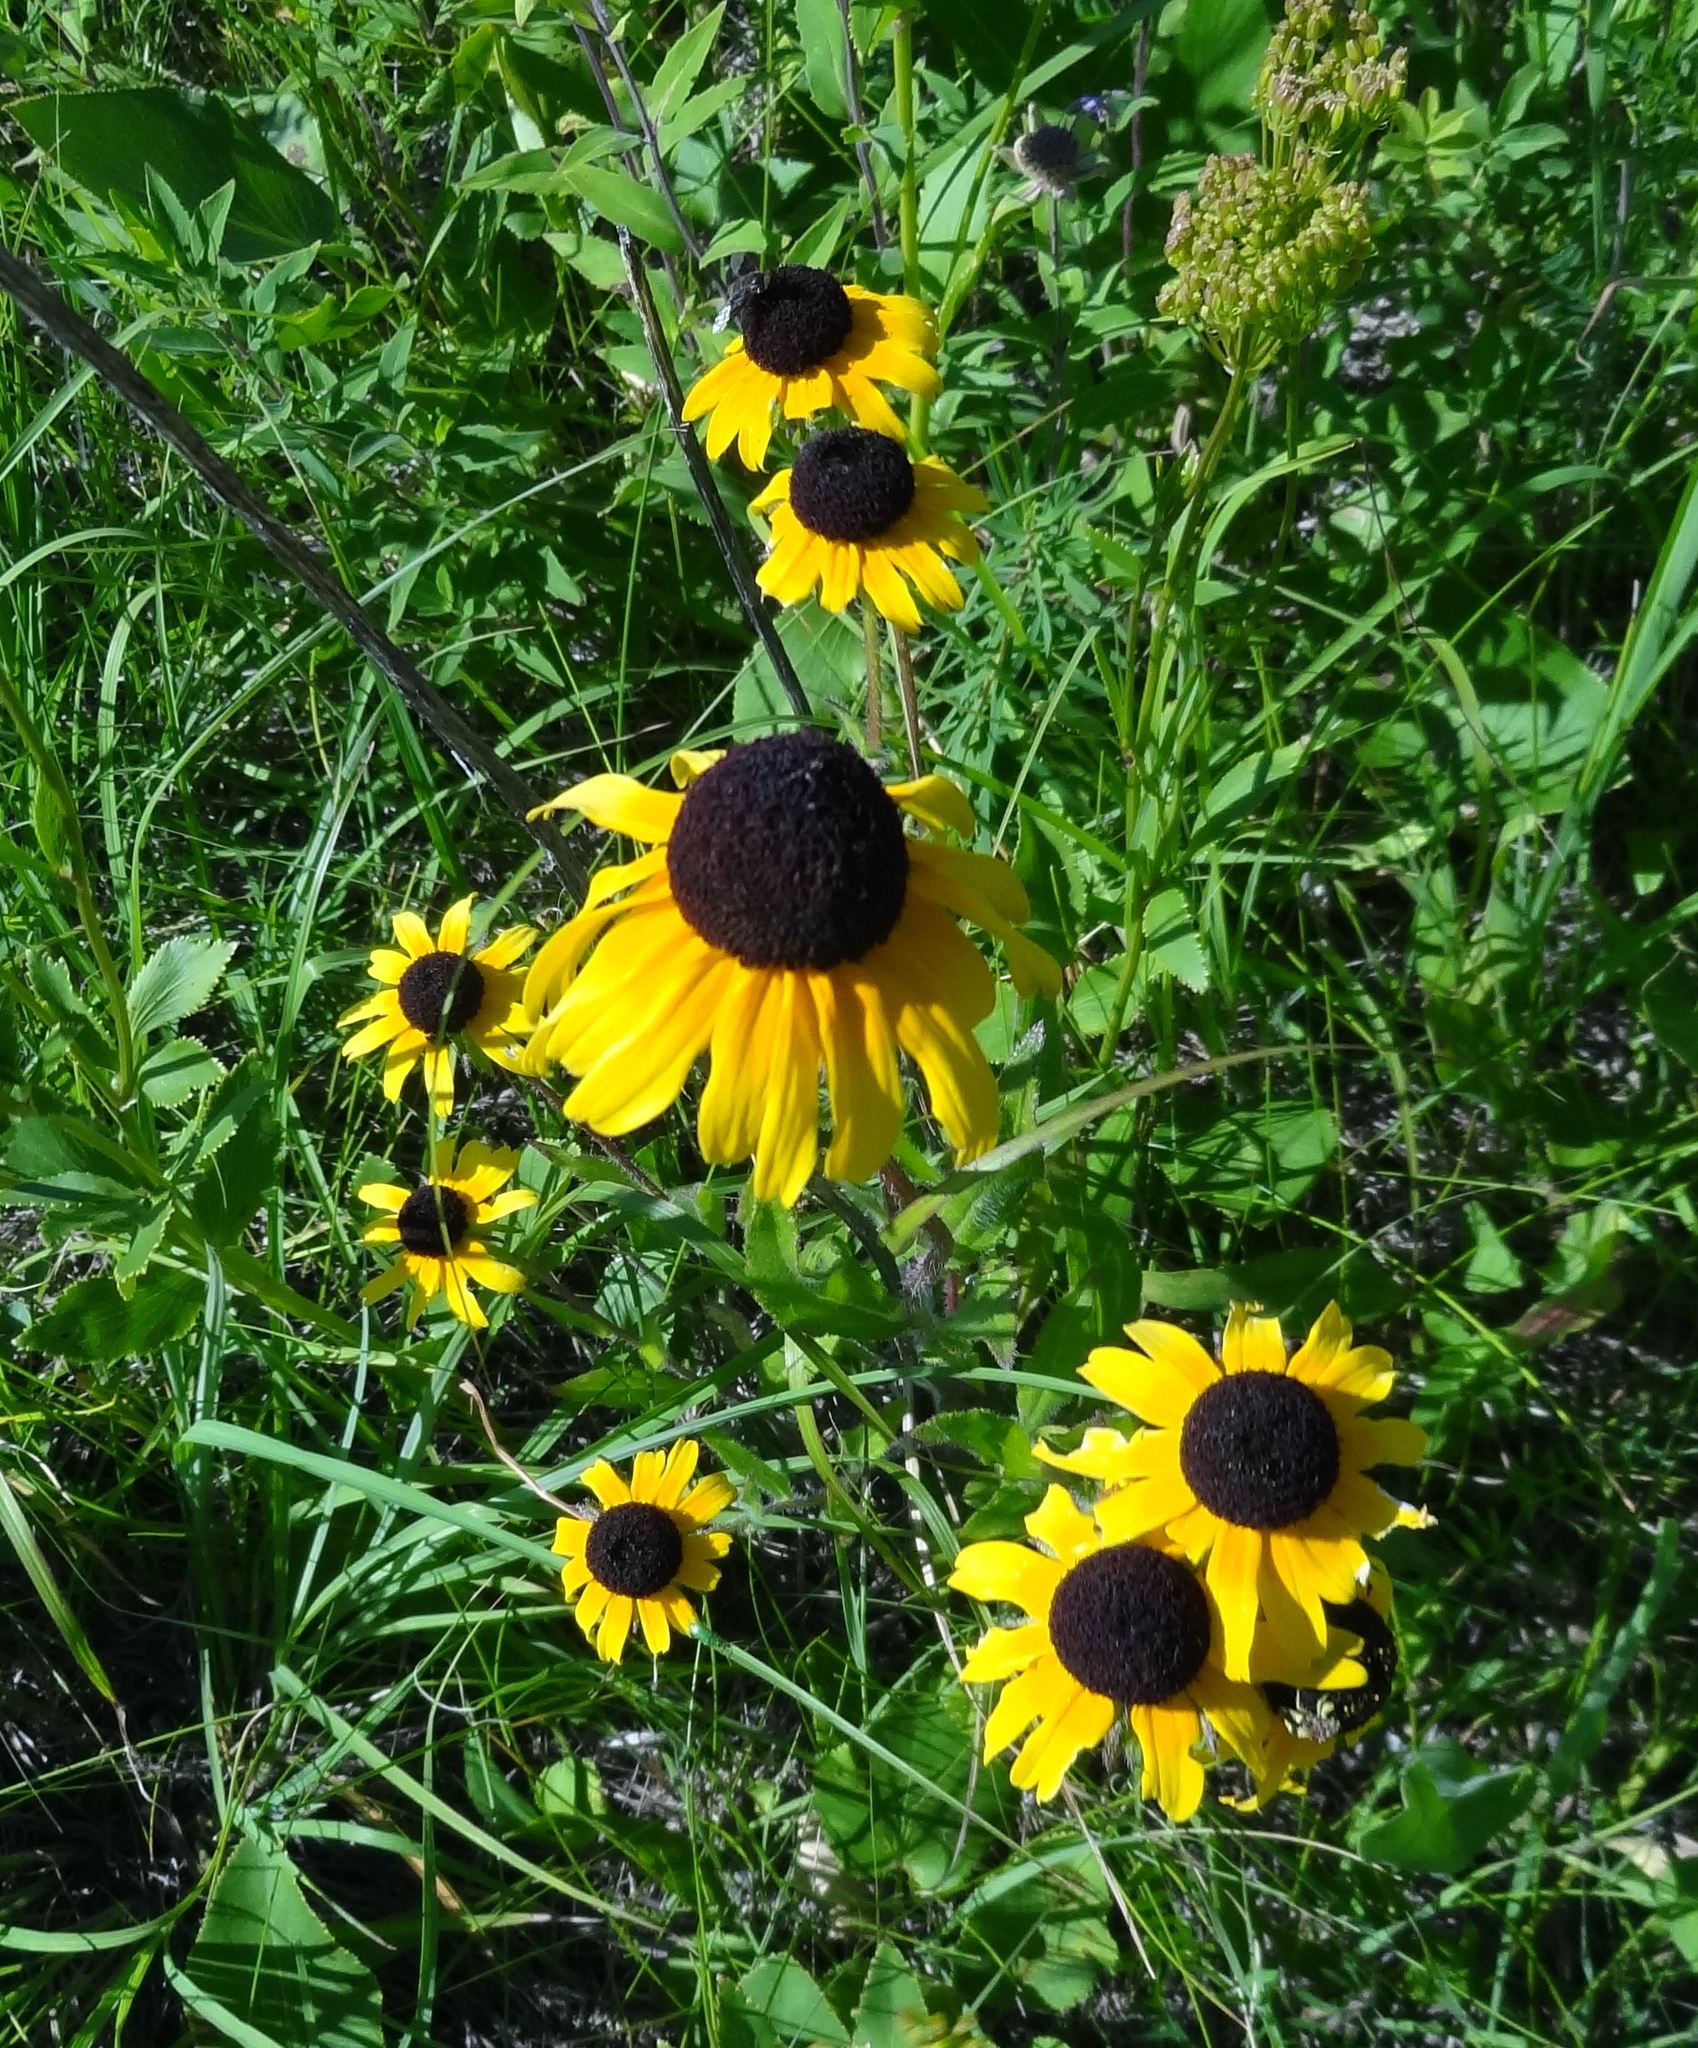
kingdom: Plantae
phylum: Tracheophyta
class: Magnoliopsida
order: Asterales
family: Asteraceae
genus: Rudbeckia
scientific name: Rudbeckia hirta
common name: Black-eyed-susan
